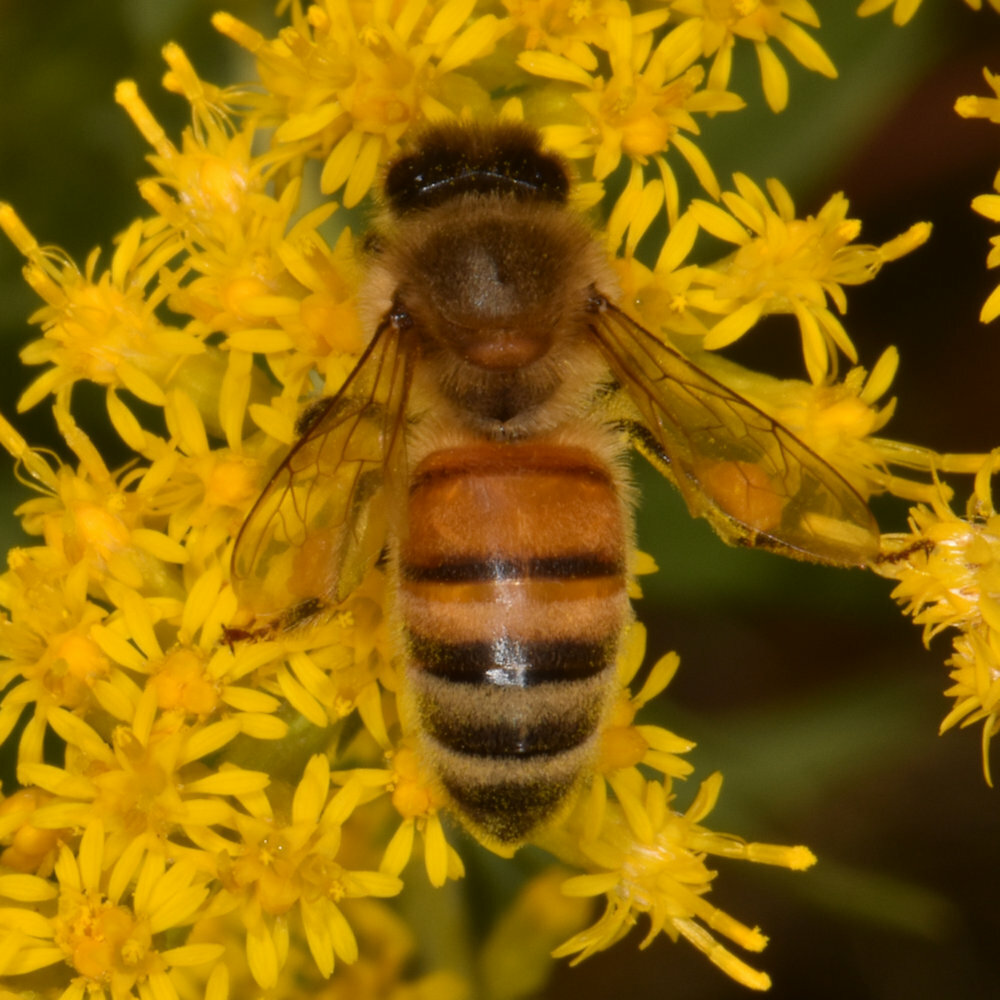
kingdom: Animalia
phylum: Arthropoda
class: Insecta
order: Hymenoptera
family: Apidae
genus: Apis
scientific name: Apis mellifera
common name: Honey bee
